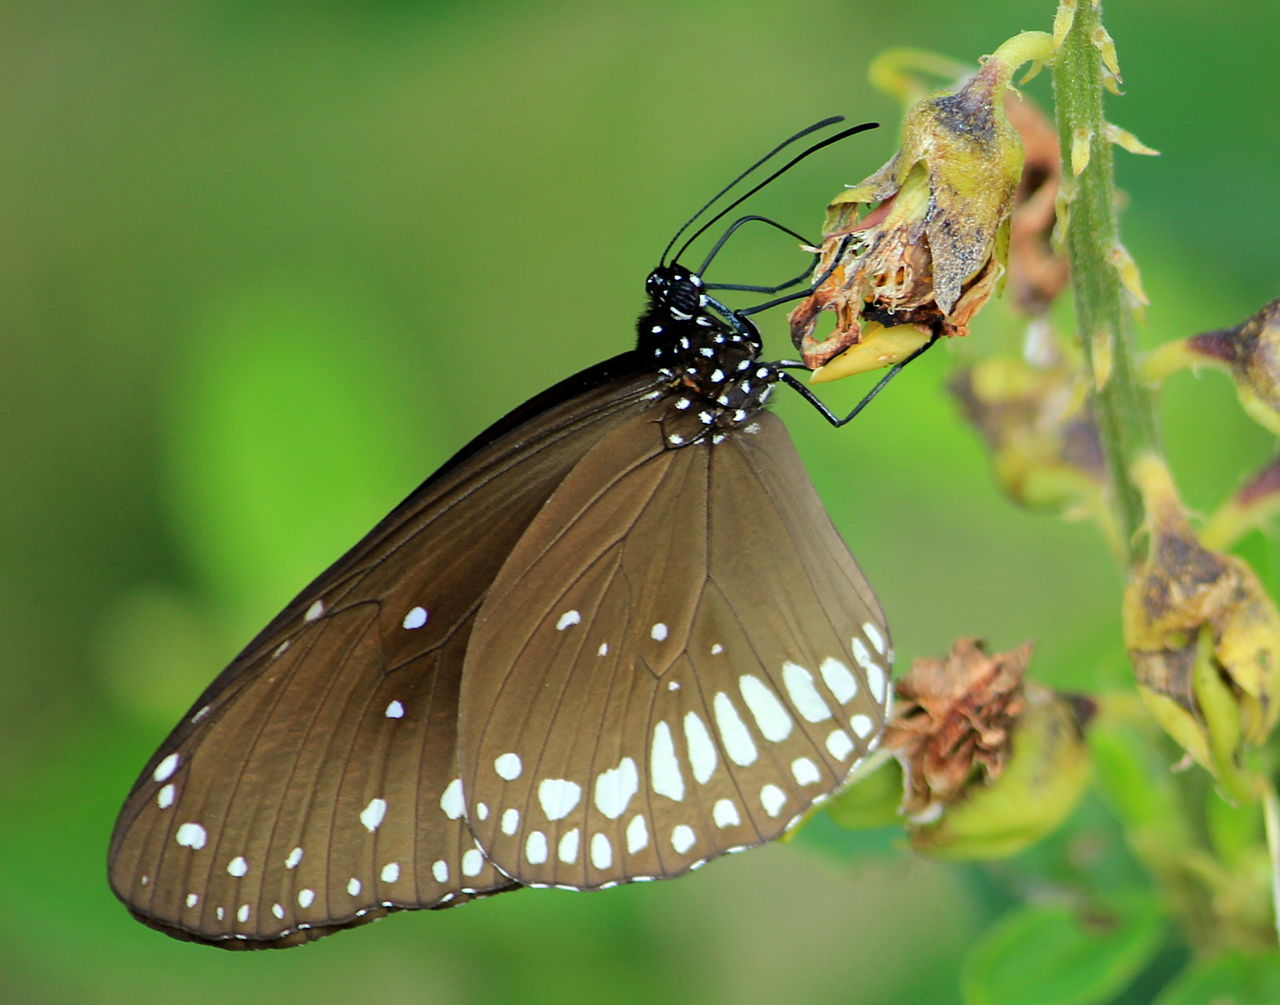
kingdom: Animalia
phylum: Arthropoda
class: Insecta
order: Lepidoptera
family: Nymphalidae
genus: Euploea
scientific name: Euploea core
